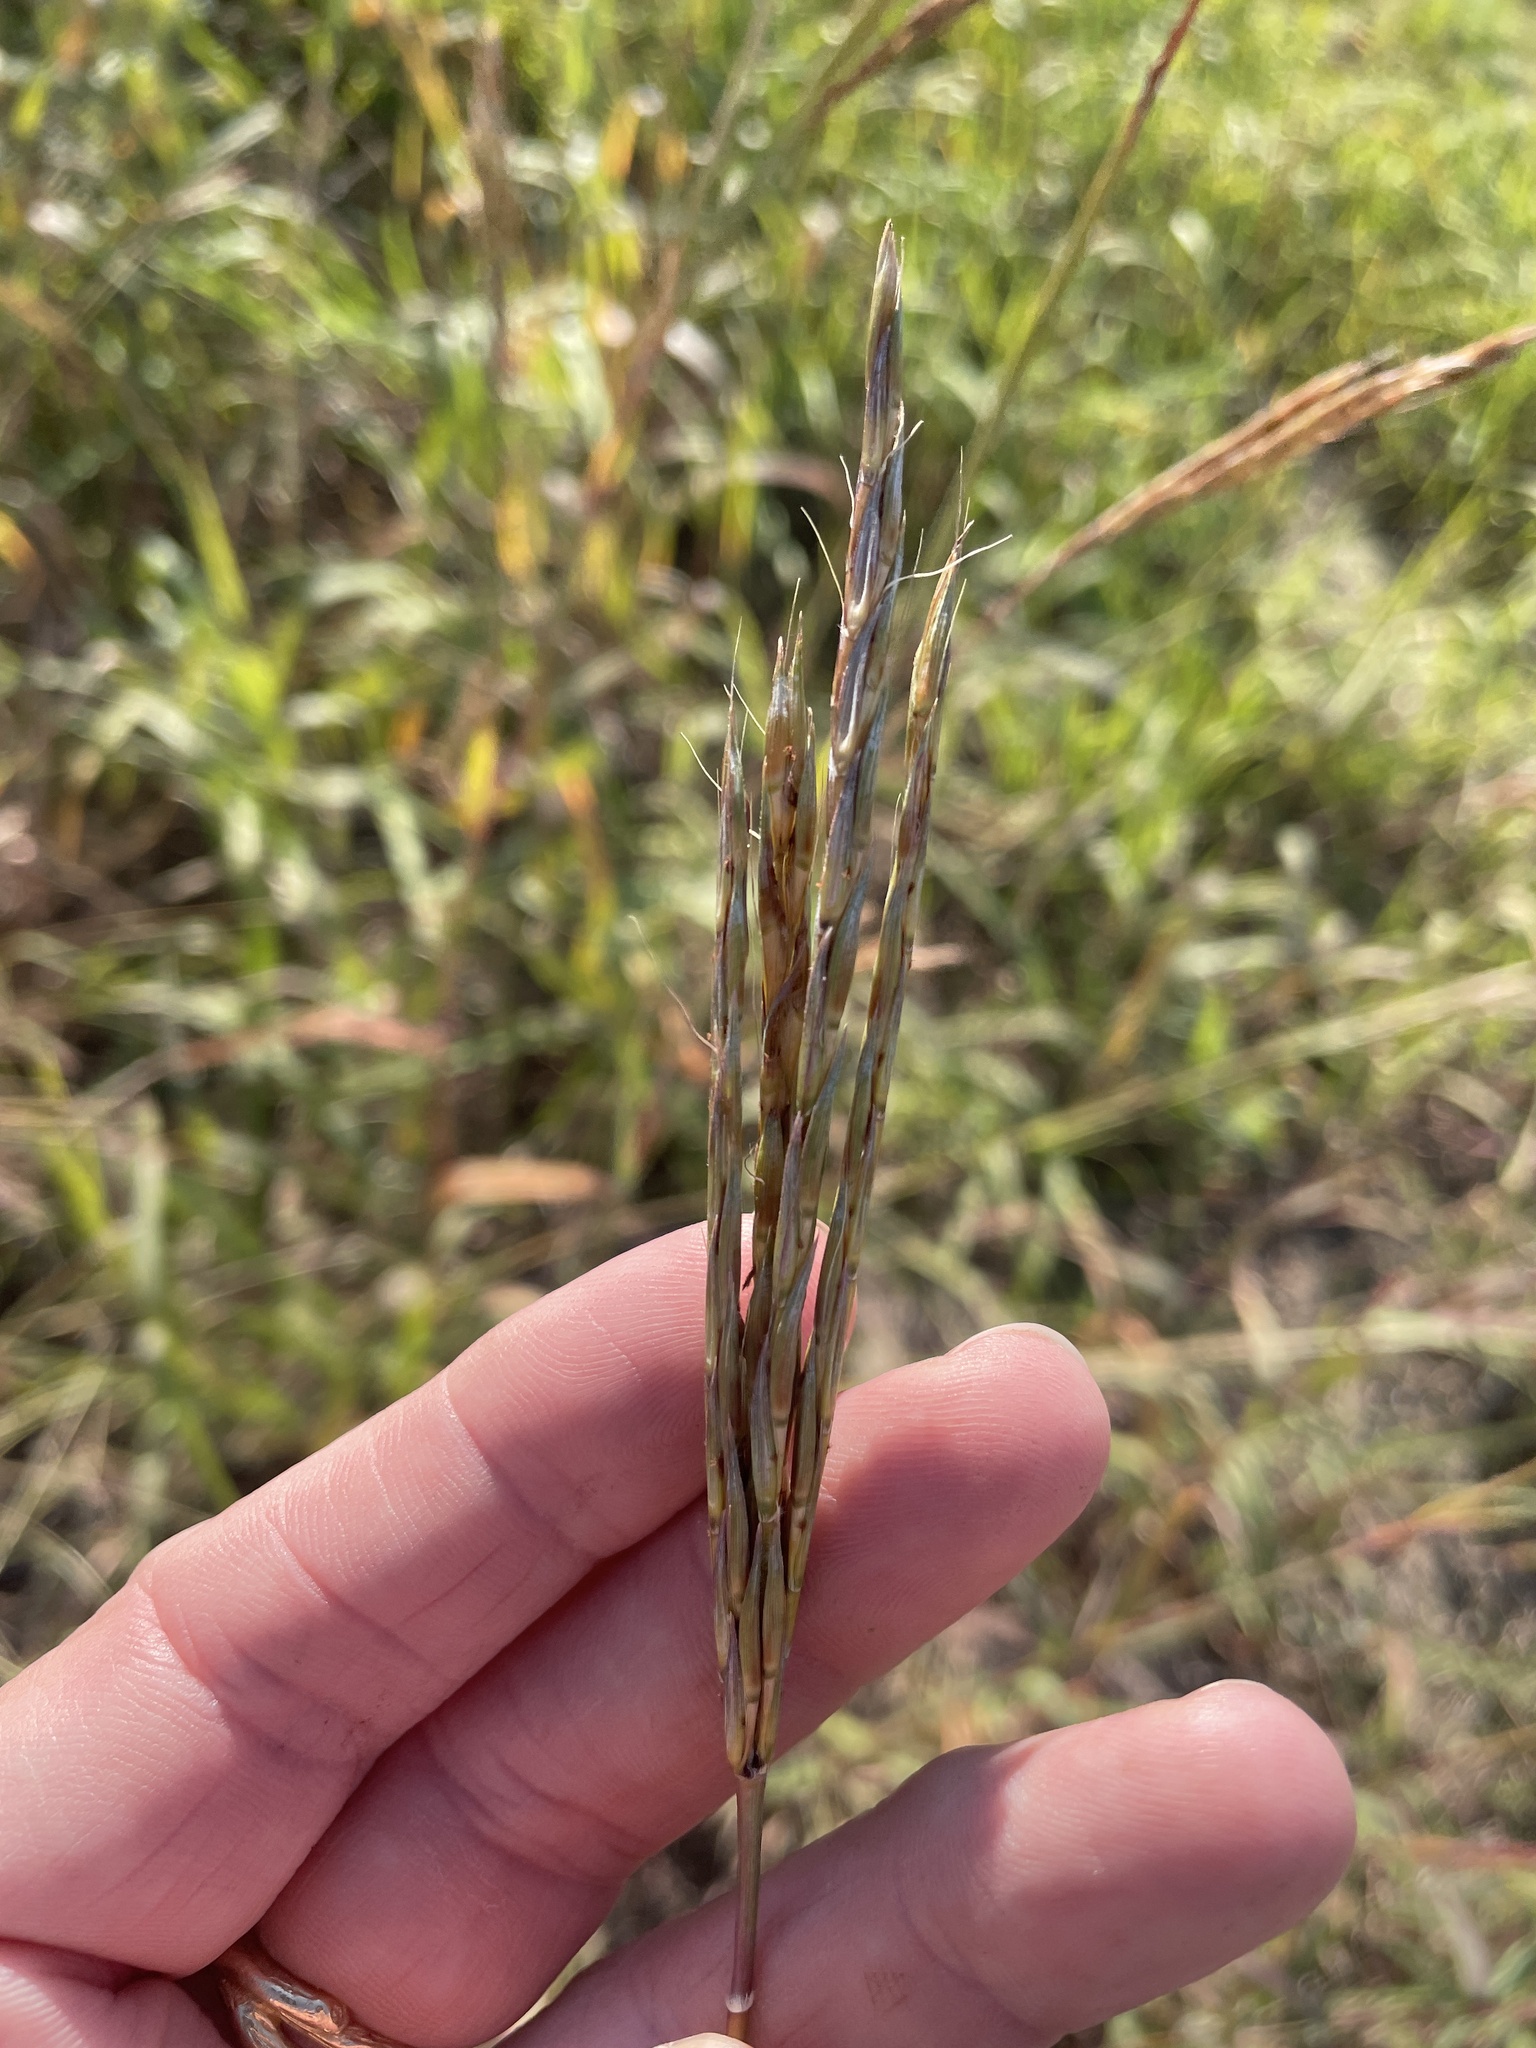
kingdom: Plantae
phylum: Tracheophyta
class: Liliopsida
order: Poales
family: Poaceae
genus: Andropogon
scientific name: Andropogon gerardi
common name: Big bluestem
